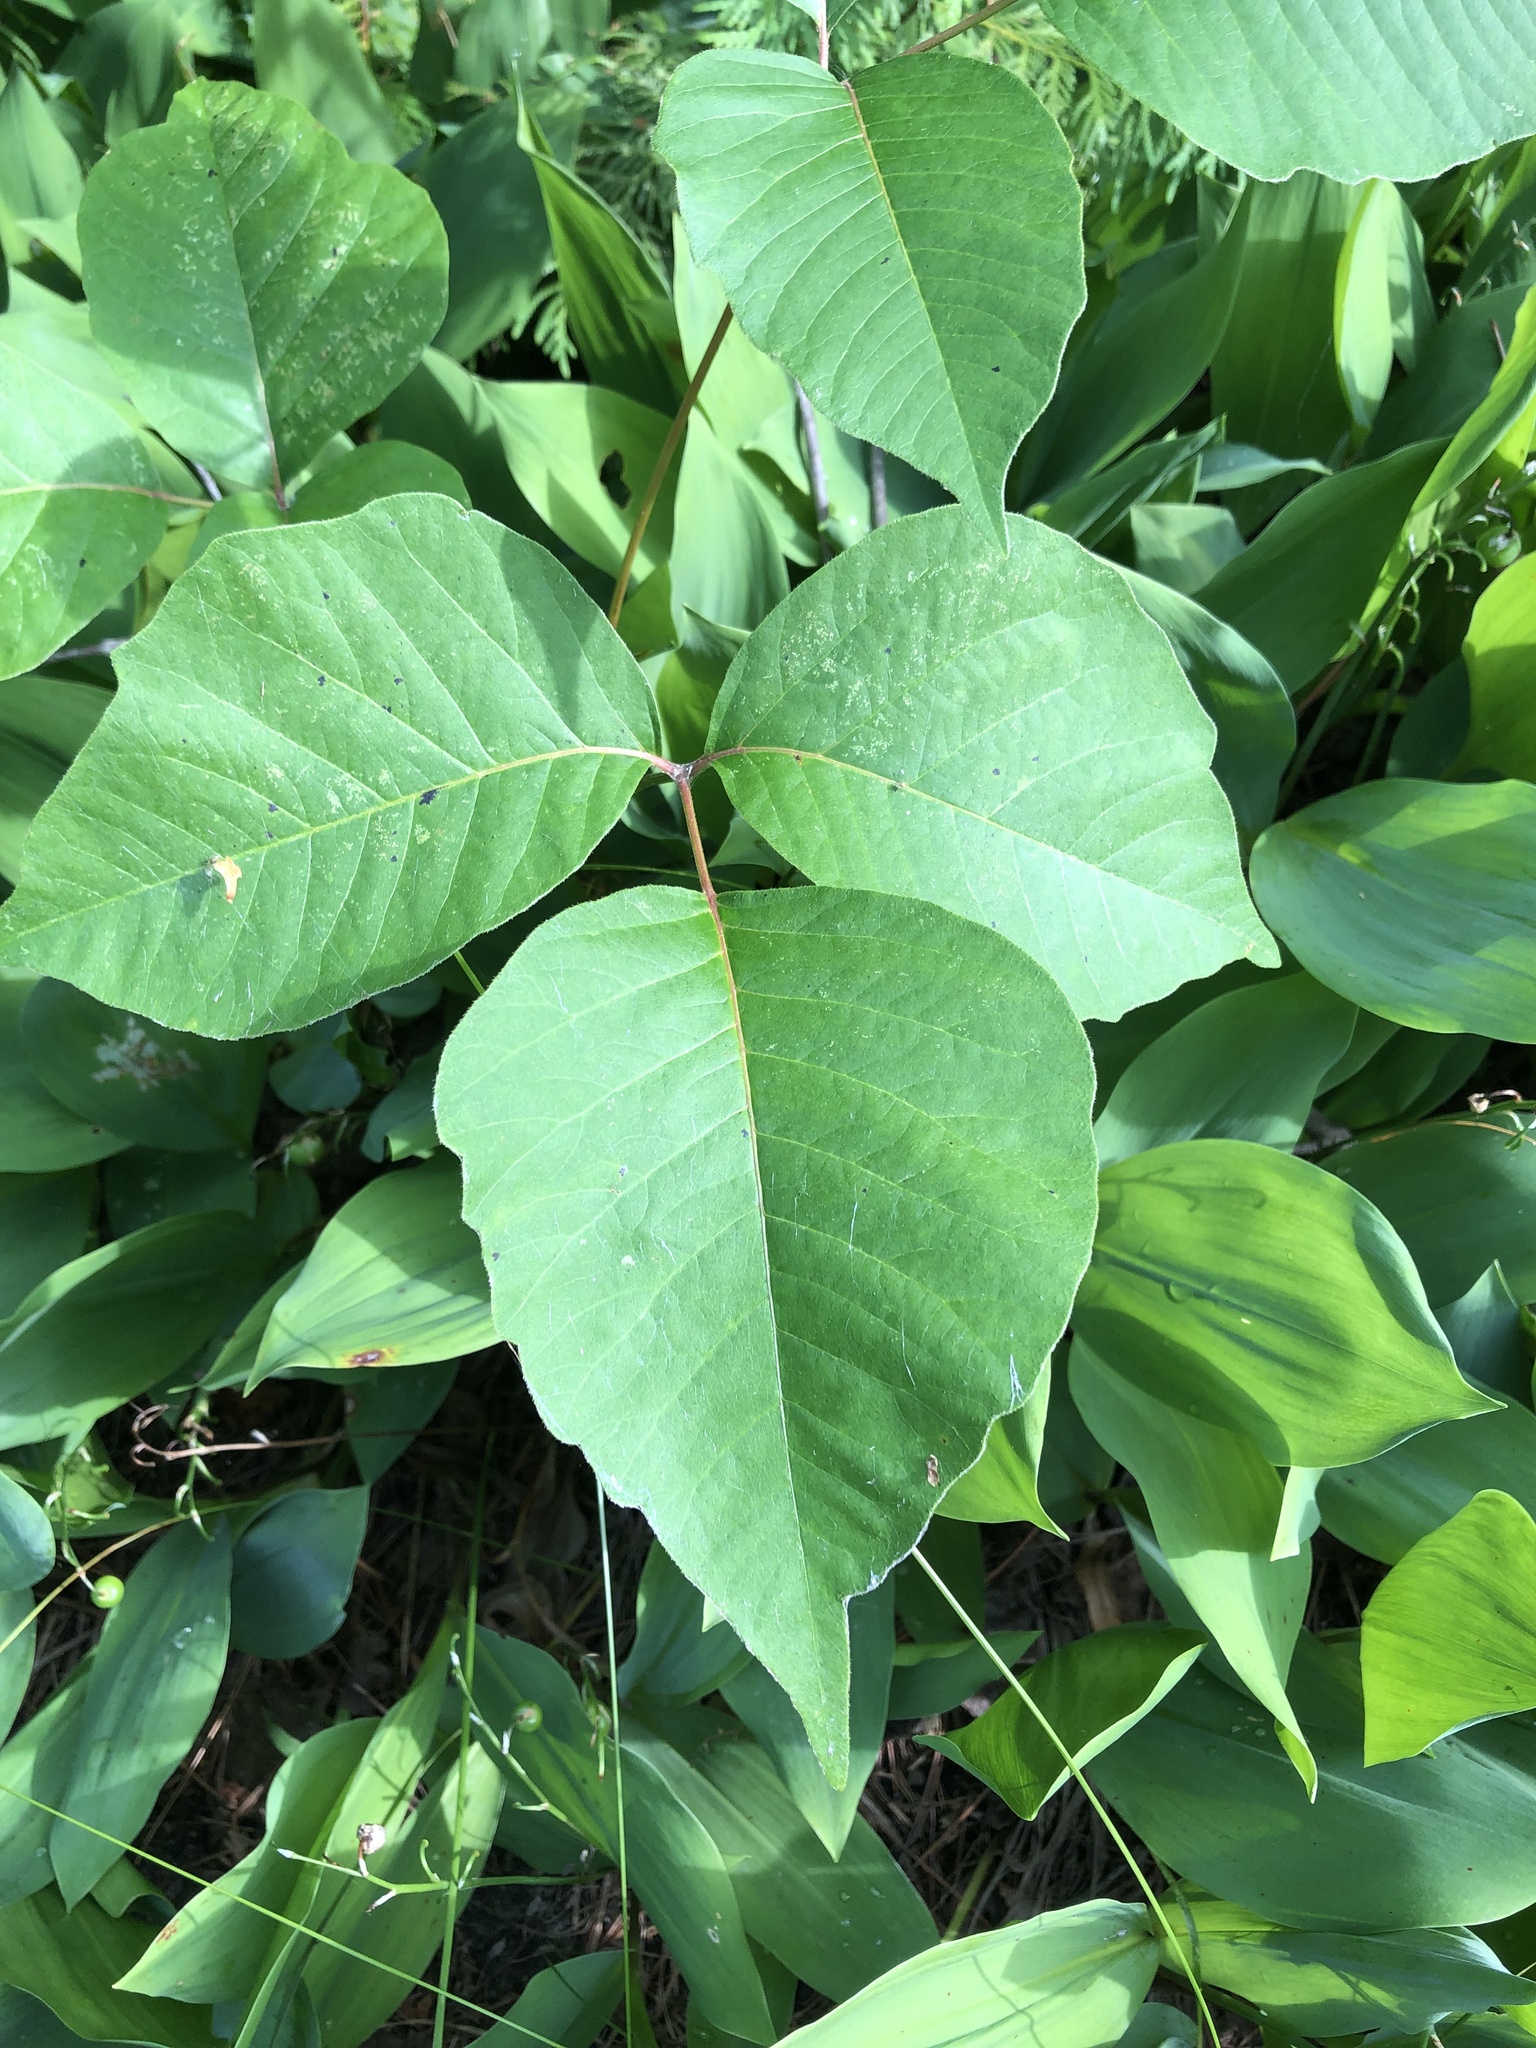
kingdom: Plantae
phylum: Tracheophyta
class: Magnoliopsida
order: Sapindales
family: Anacardiaceae
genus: Toxicodendron
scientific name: Toxicodendron rydbergii
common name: Rydberg's poison-ivy
